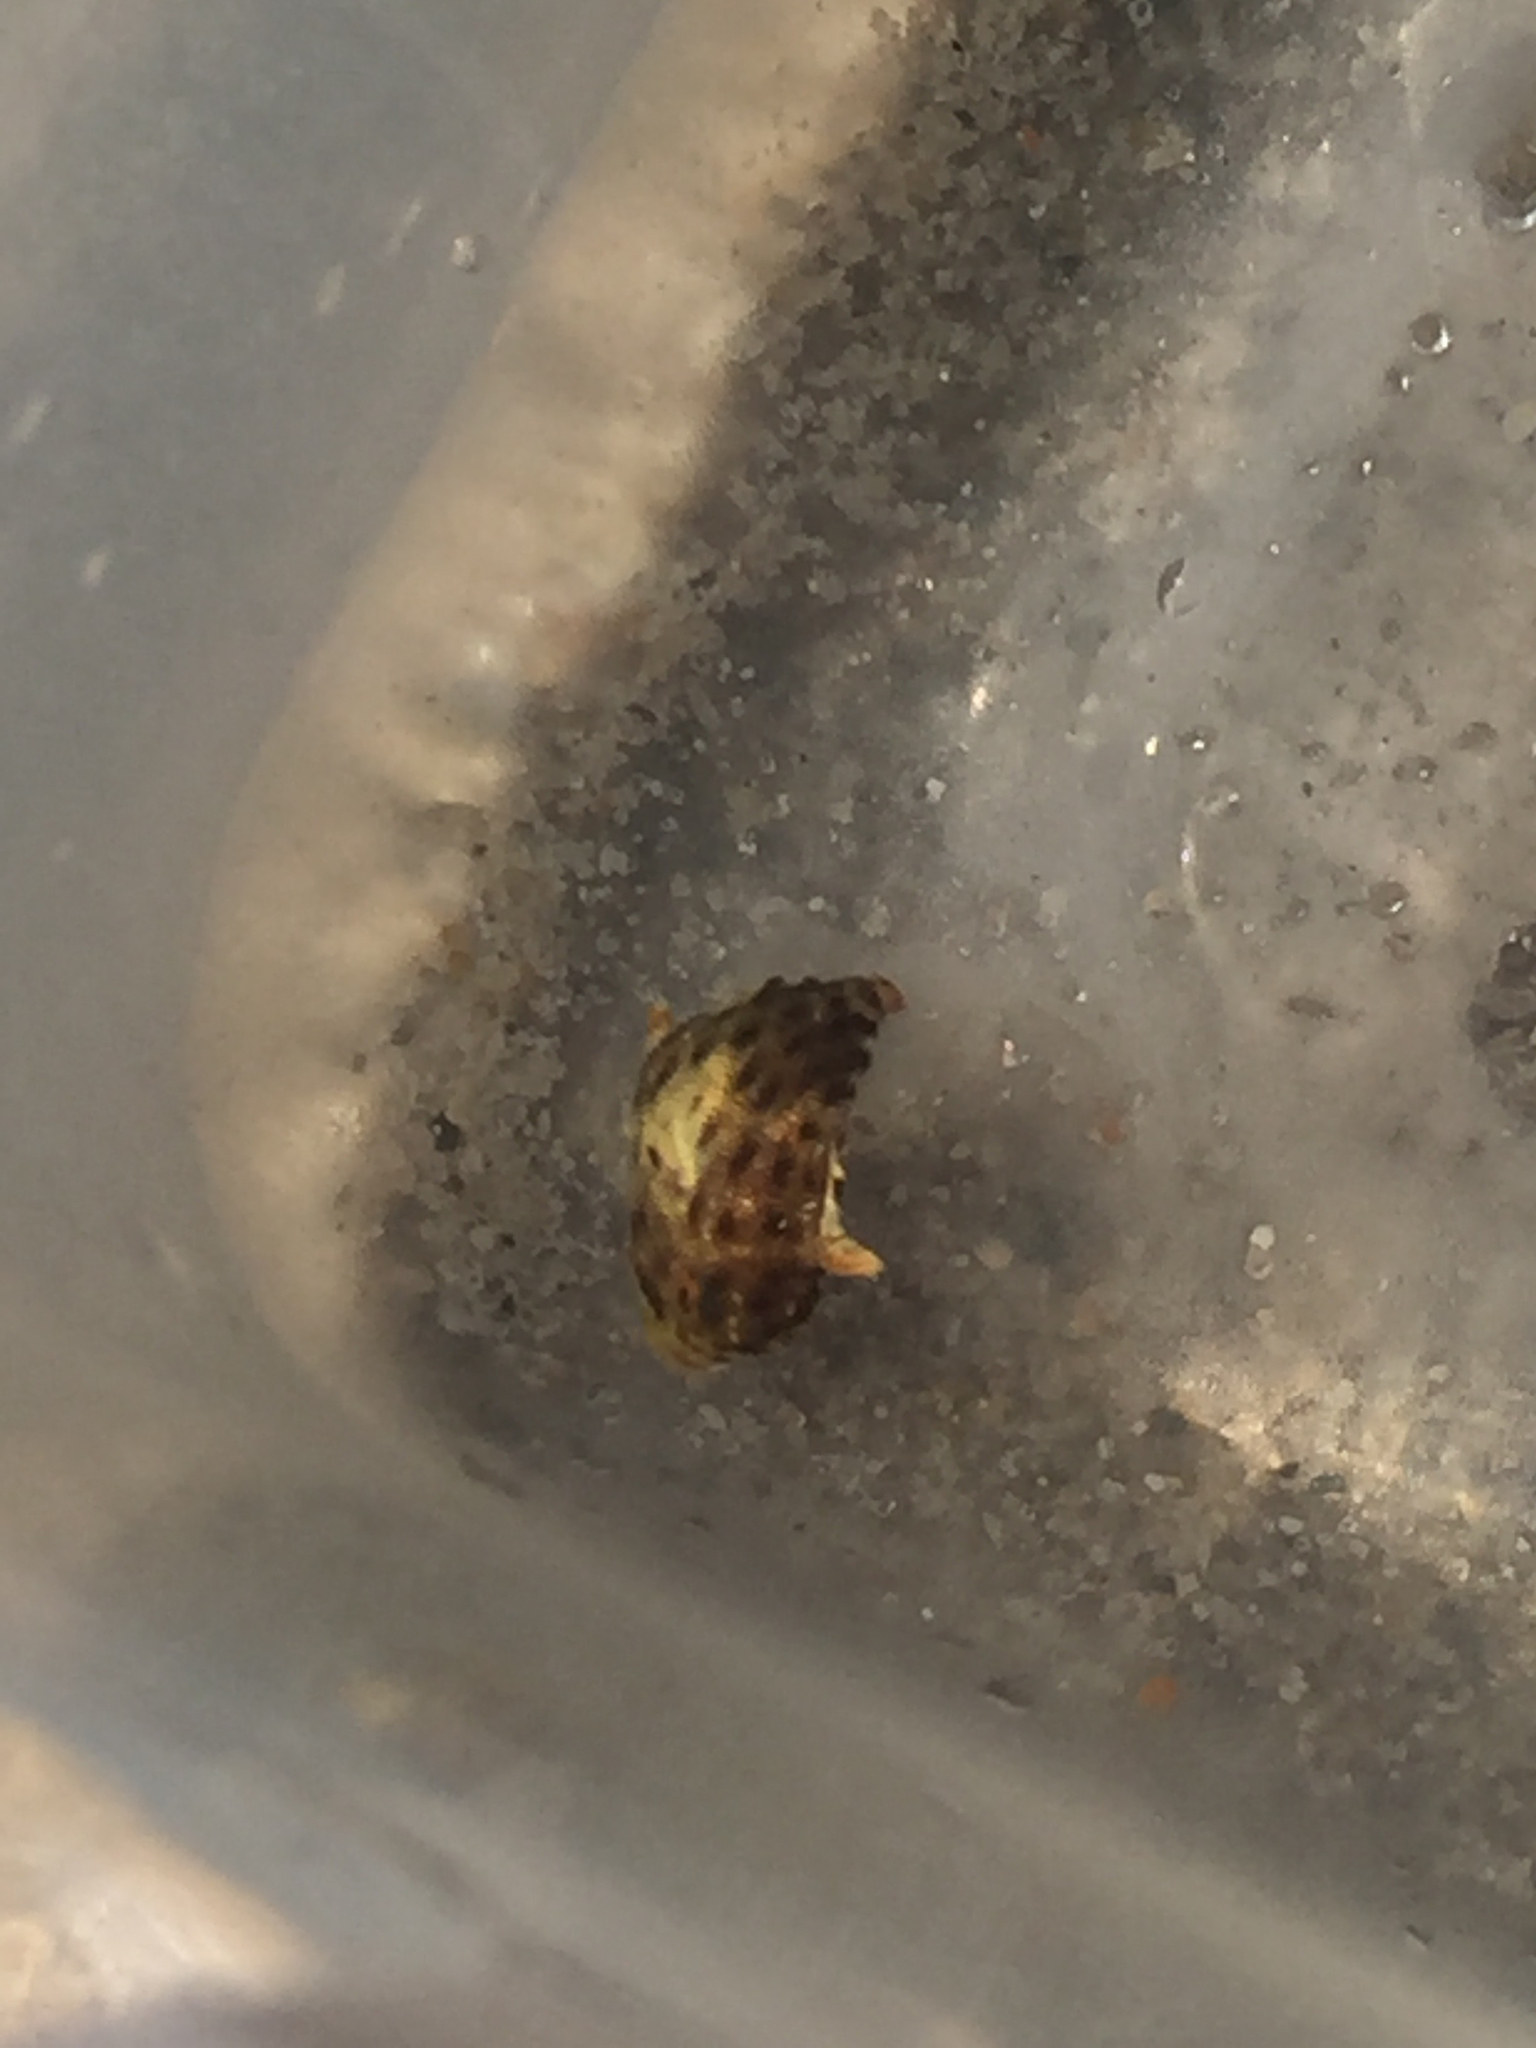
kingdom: Animalia
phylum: Chordata
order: Tetraodontiformes
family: Monacanthidae
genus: Stephanolepis
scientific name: Stephanolepis hispidus
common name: Planehead filefish
